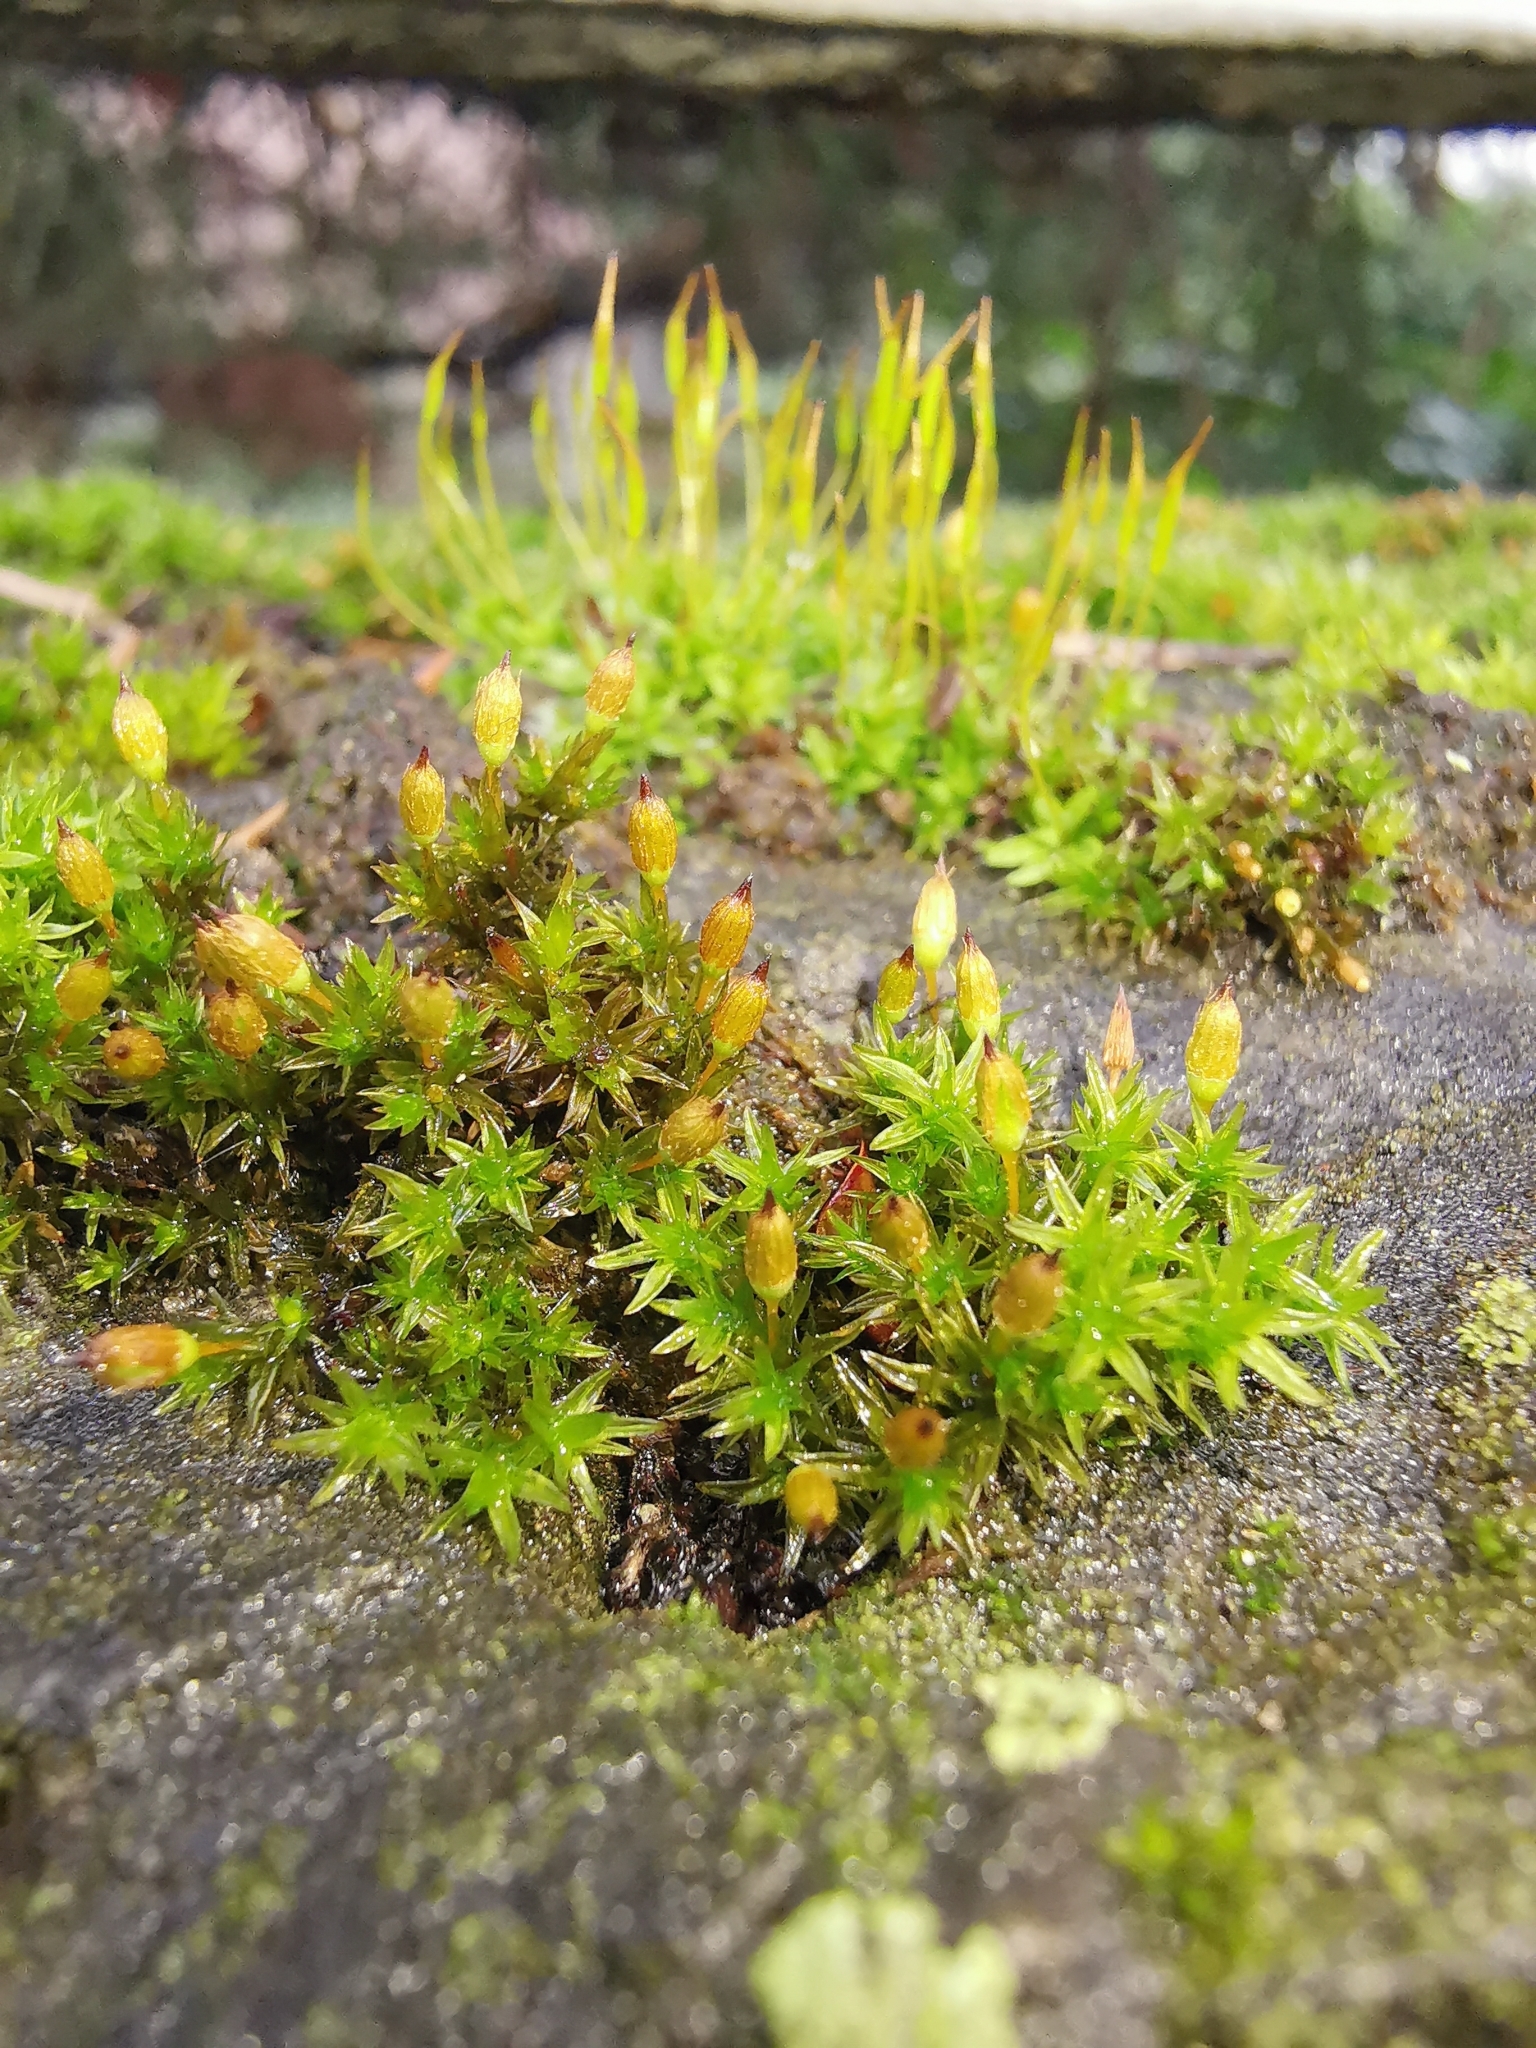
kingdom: Plantae
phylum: Bryophyta
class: Bryopsida
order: Orthotrichales
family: Orthotrichaceae
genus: Orthotrichum
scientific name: Orthotrichum anomalum
